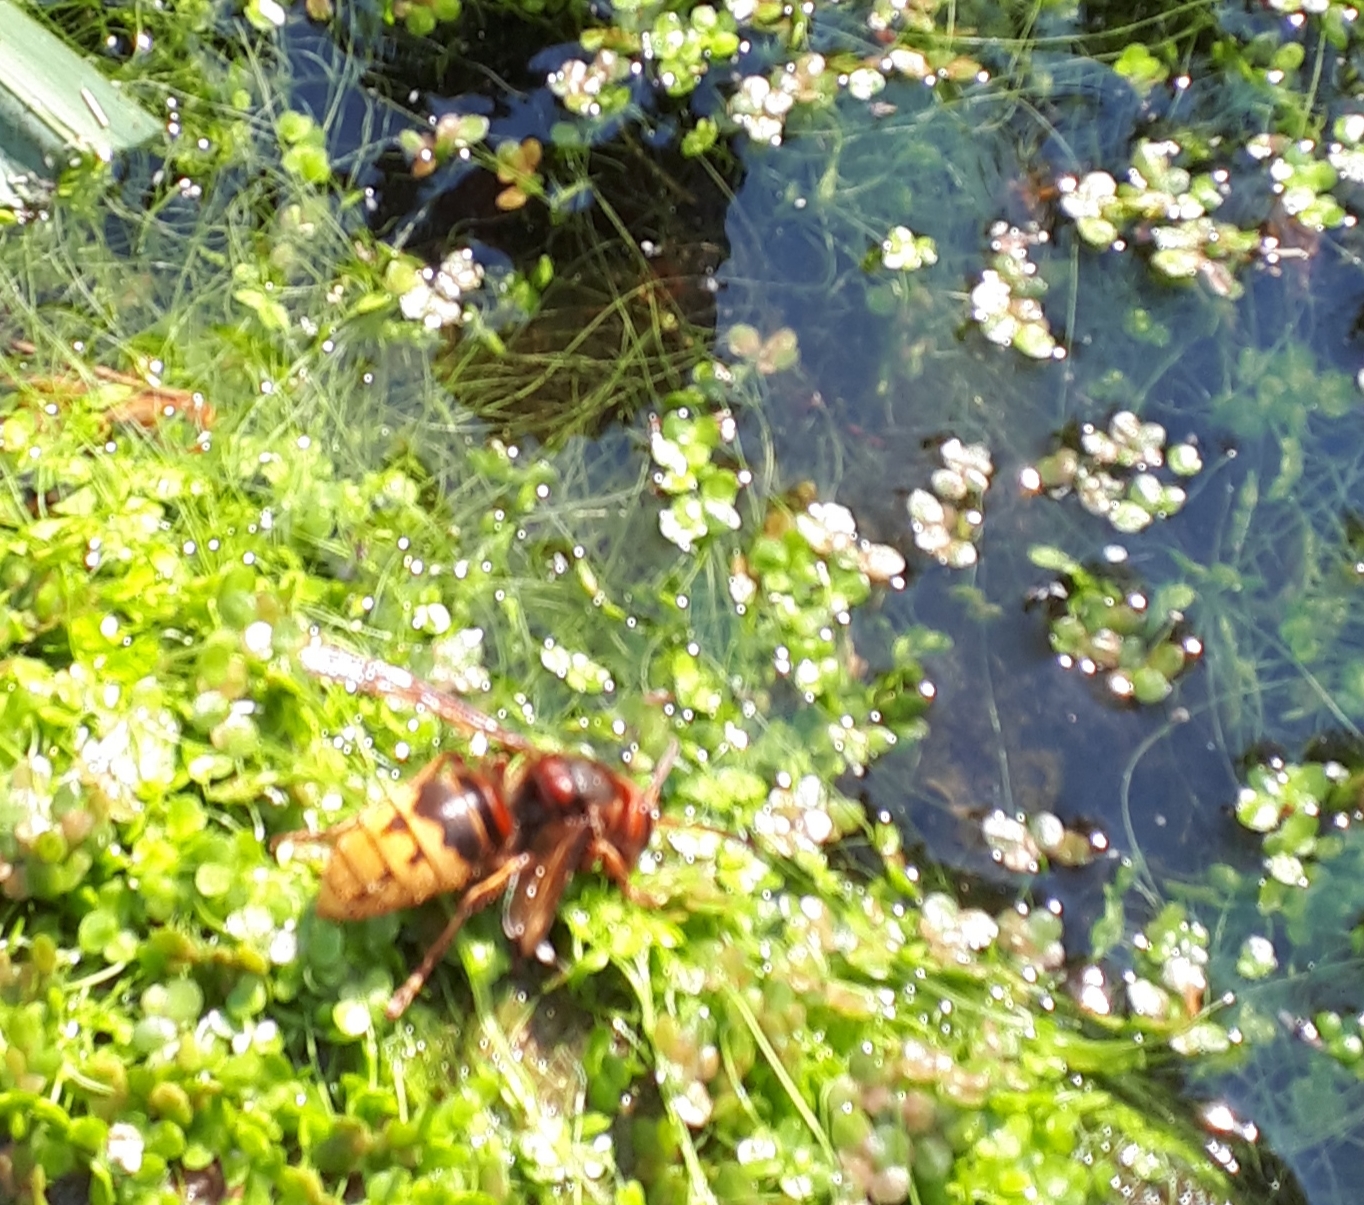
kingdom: Animalia
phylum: Arthropoda
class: Insecta
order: Hymenoptera
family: Vespidae
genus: Vespa
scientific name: Vespa crabro
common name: Hornet
